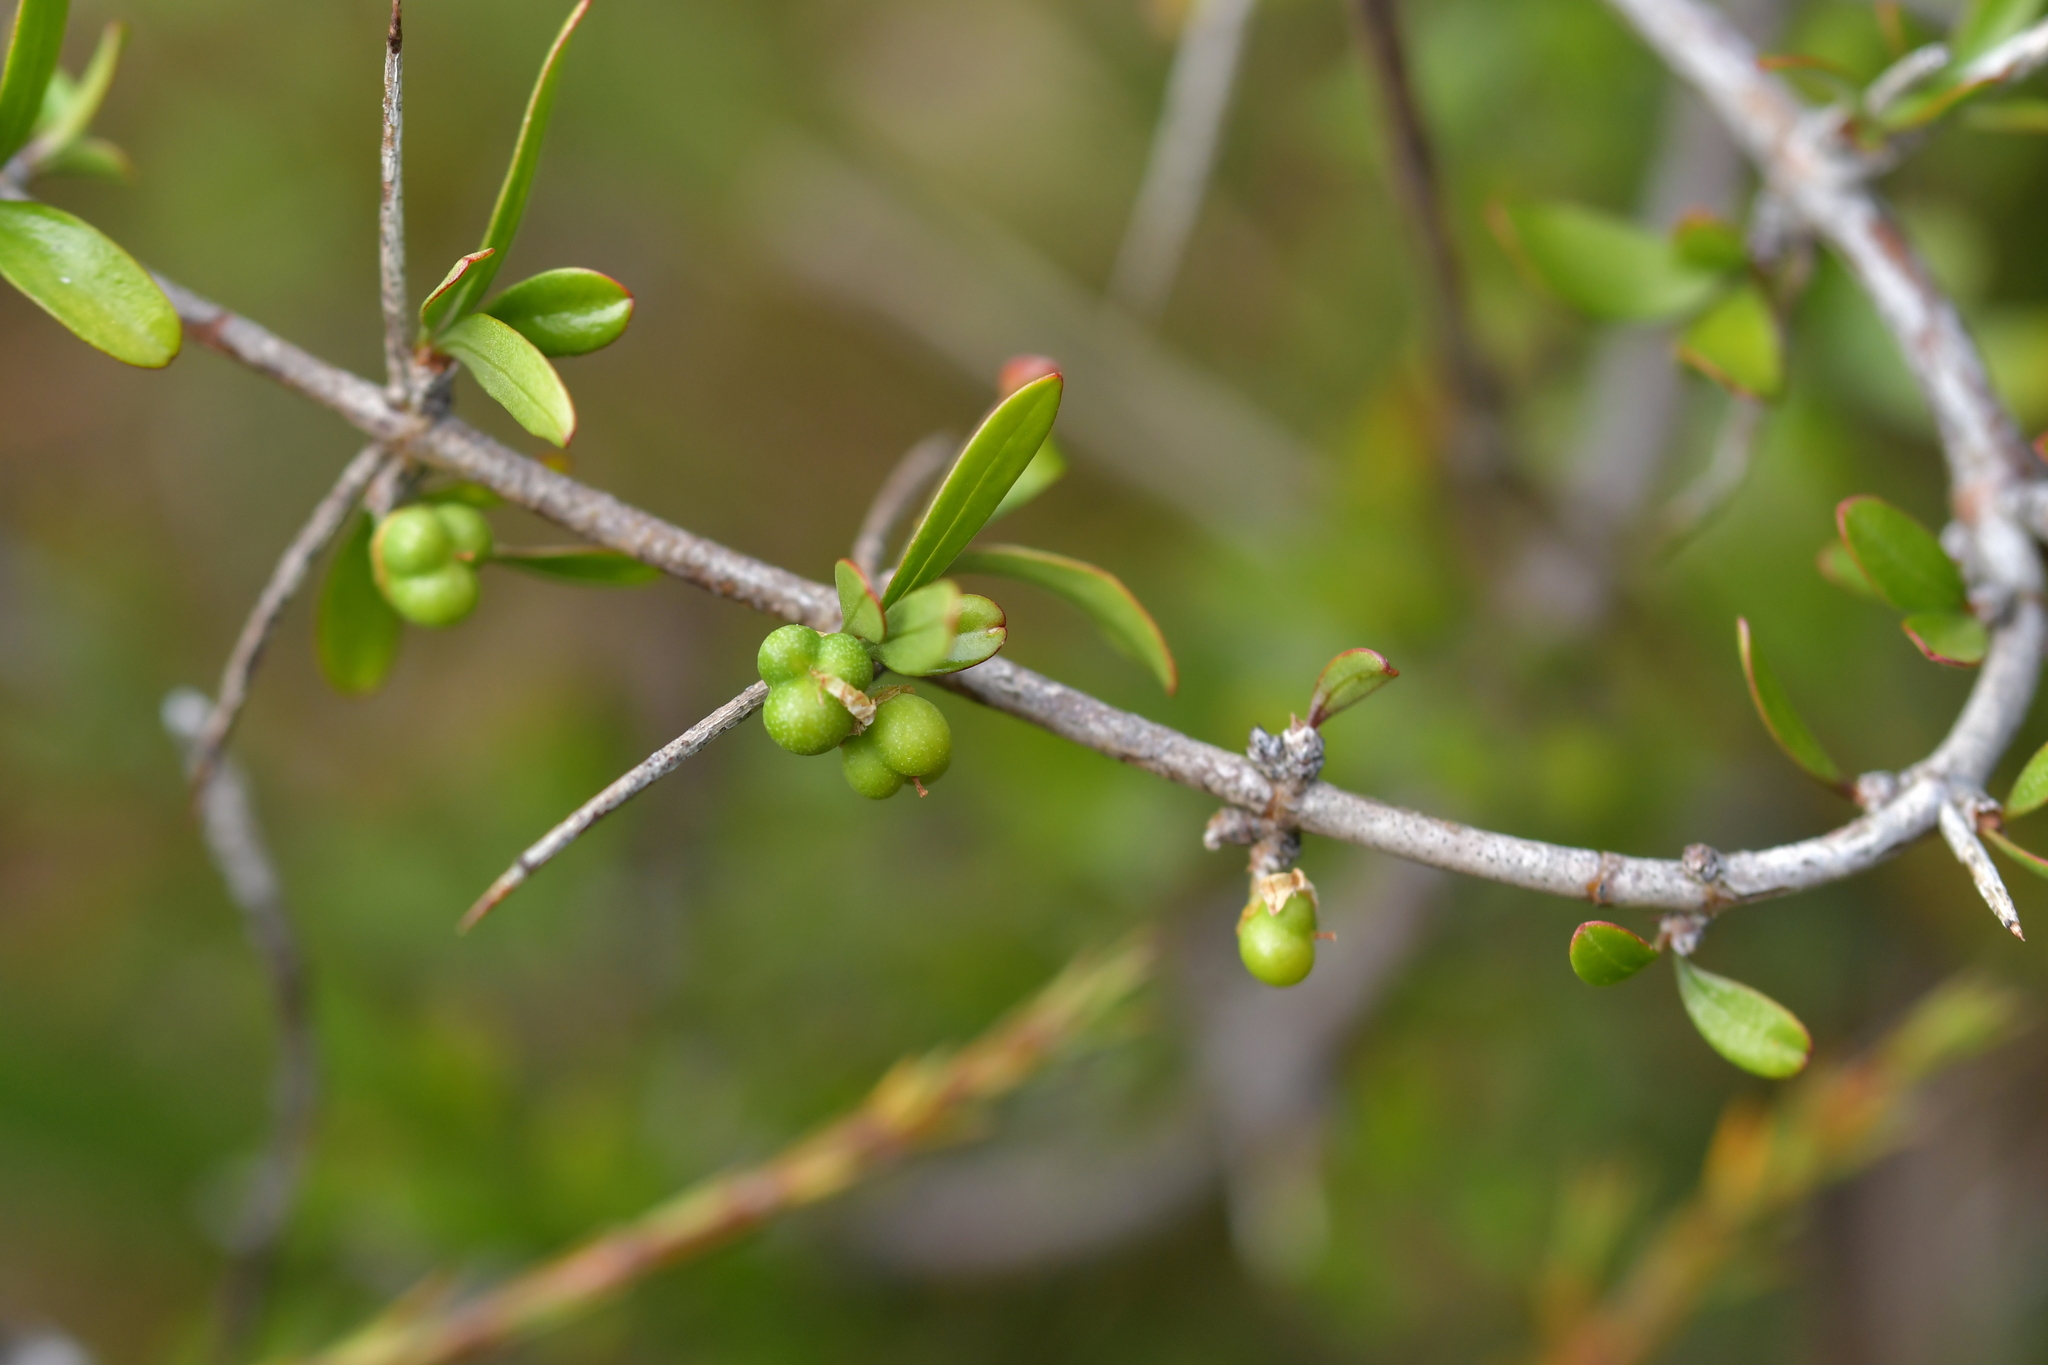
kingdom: Plantae
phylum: Tracheophyta
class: Magnoliopsida
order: Rosales
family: Rhamnaceae
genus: Discaria
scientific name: Discaria toumatou
